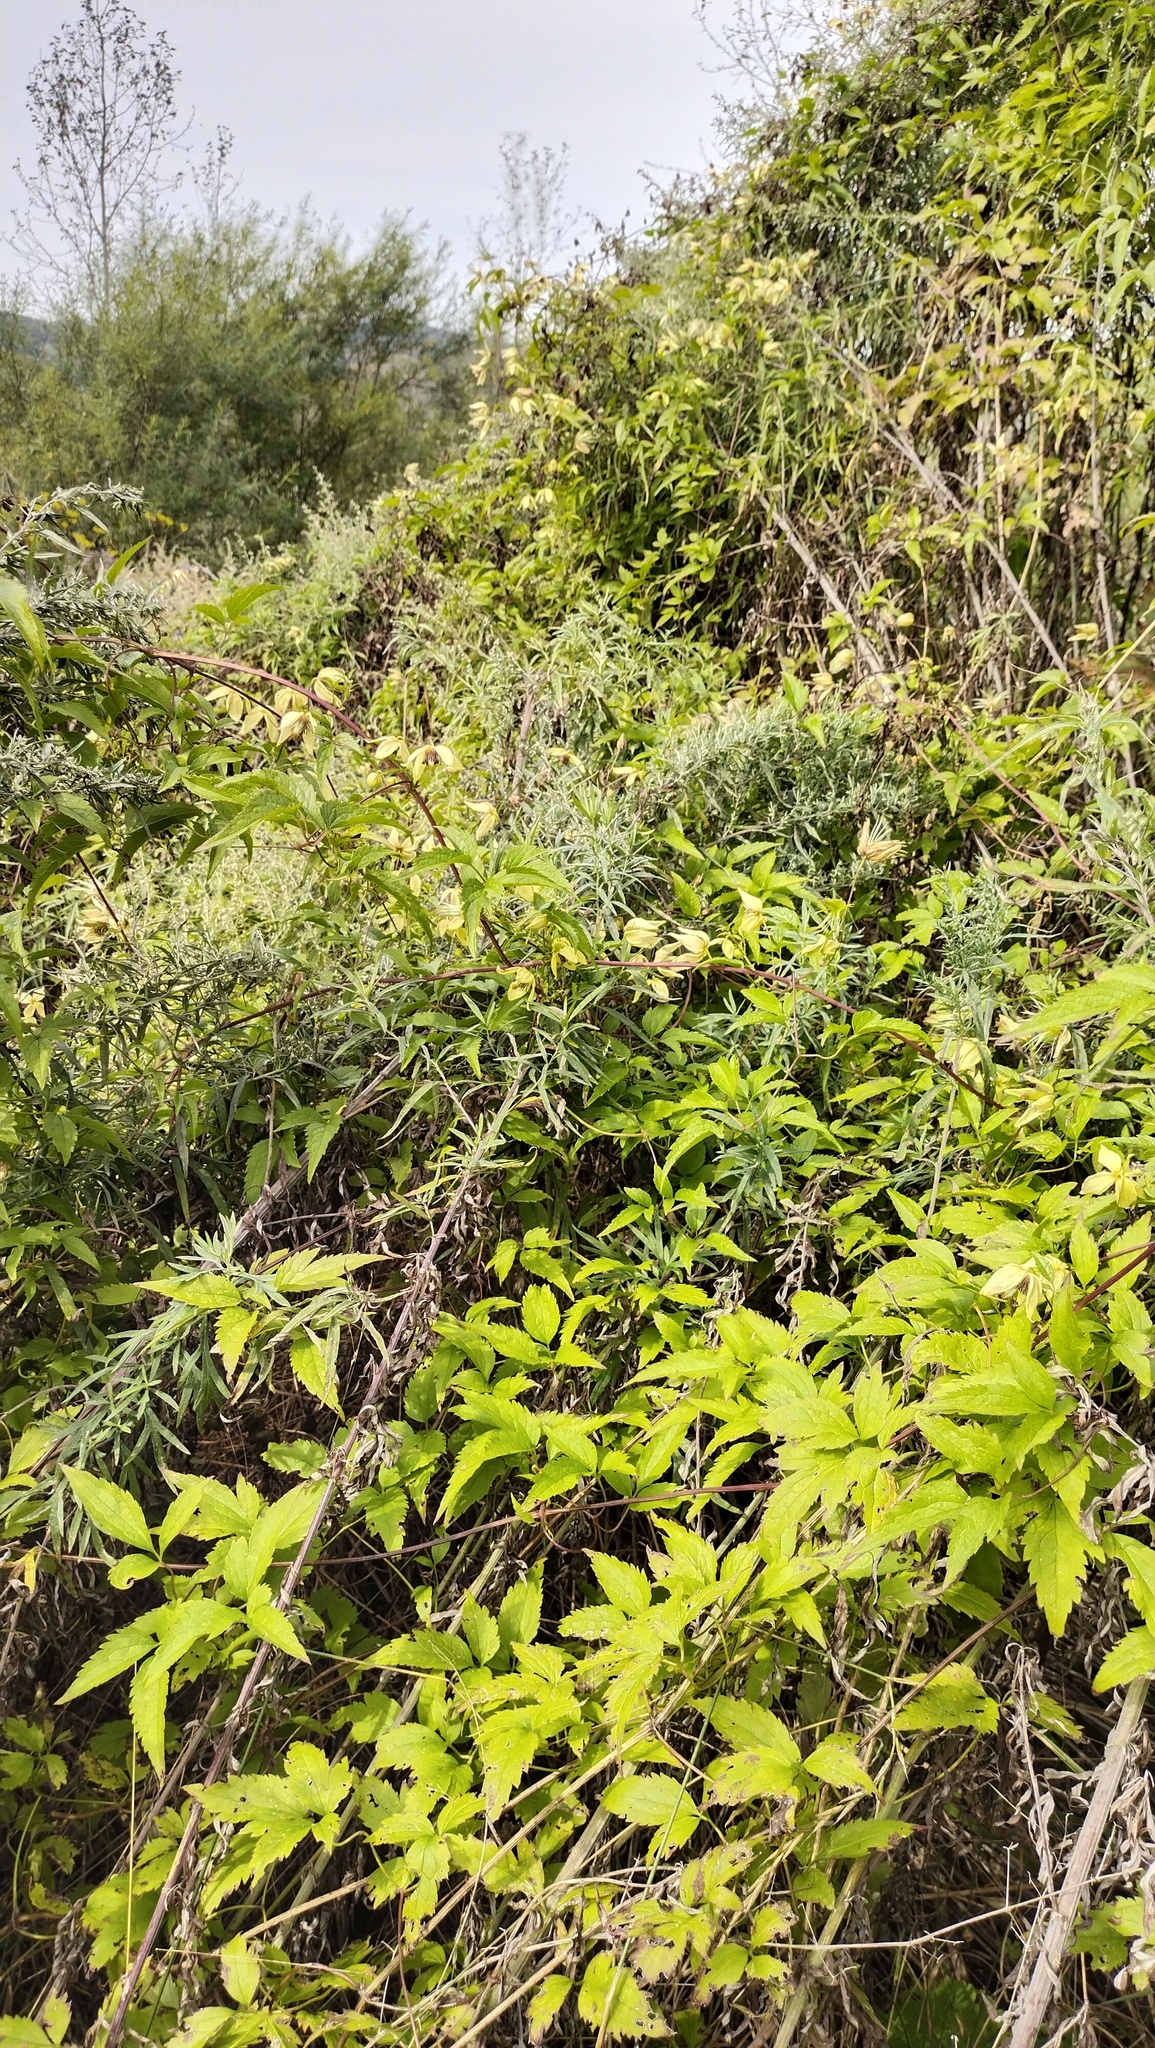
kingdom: Plantae
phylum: Tracheophyta
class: Magnoliopsida
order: Ranunculales
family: Ranunculaceae
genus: Clematis
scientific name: Clematis serratifolia
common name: Korean clematis
